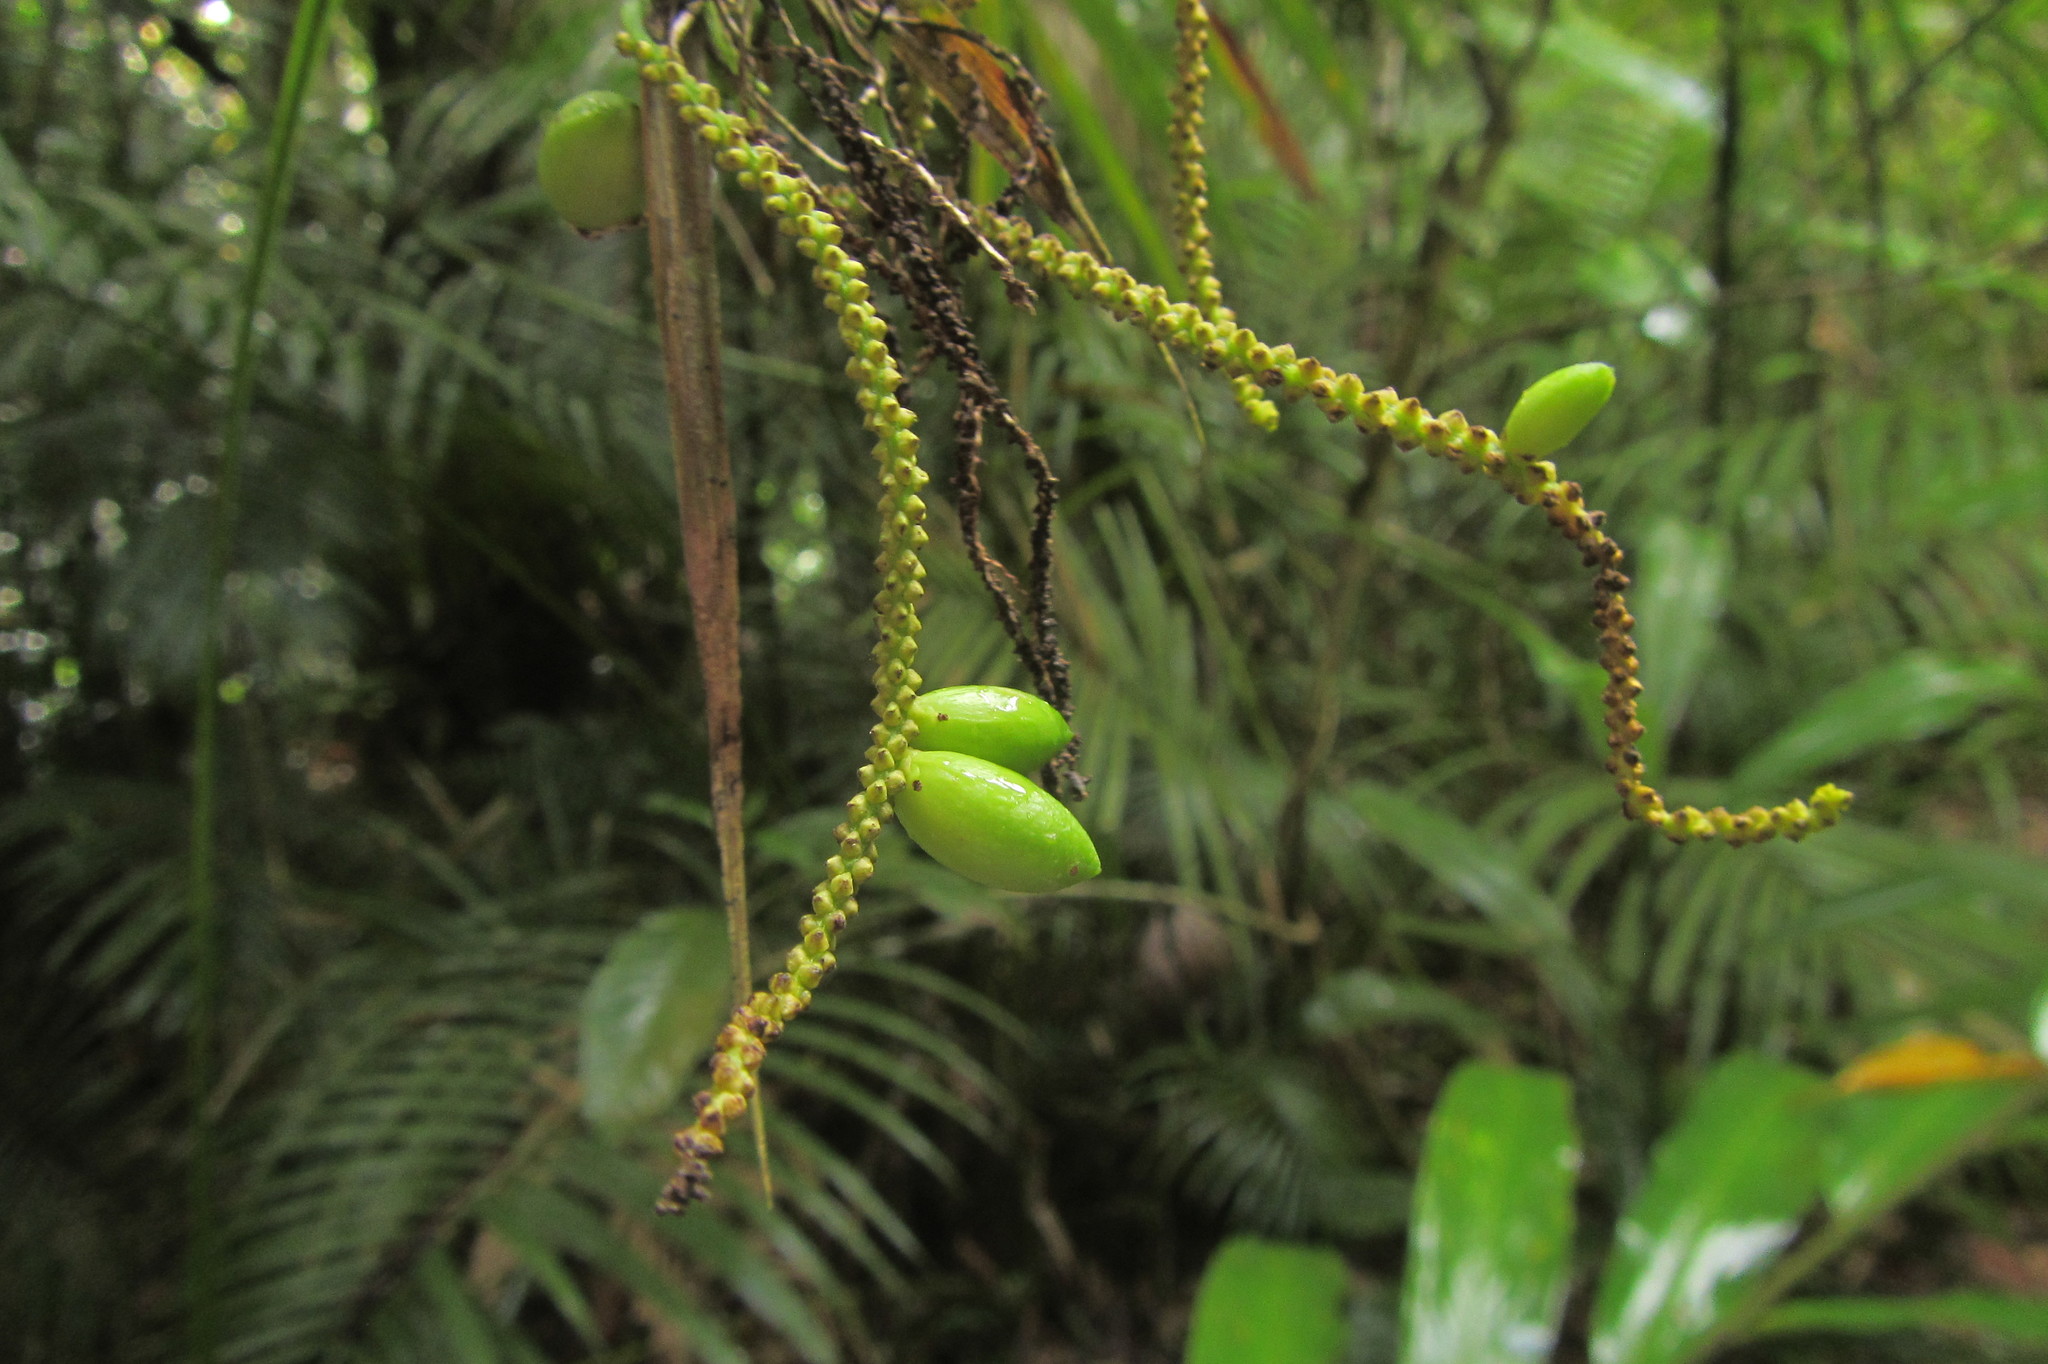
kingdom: Plantae
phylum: Tracheophyta
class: Liliopsida
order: Alismatales
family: Araceae
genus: Gymnostachys
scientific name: Gymnostachys anceps
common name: Settler's-flax
